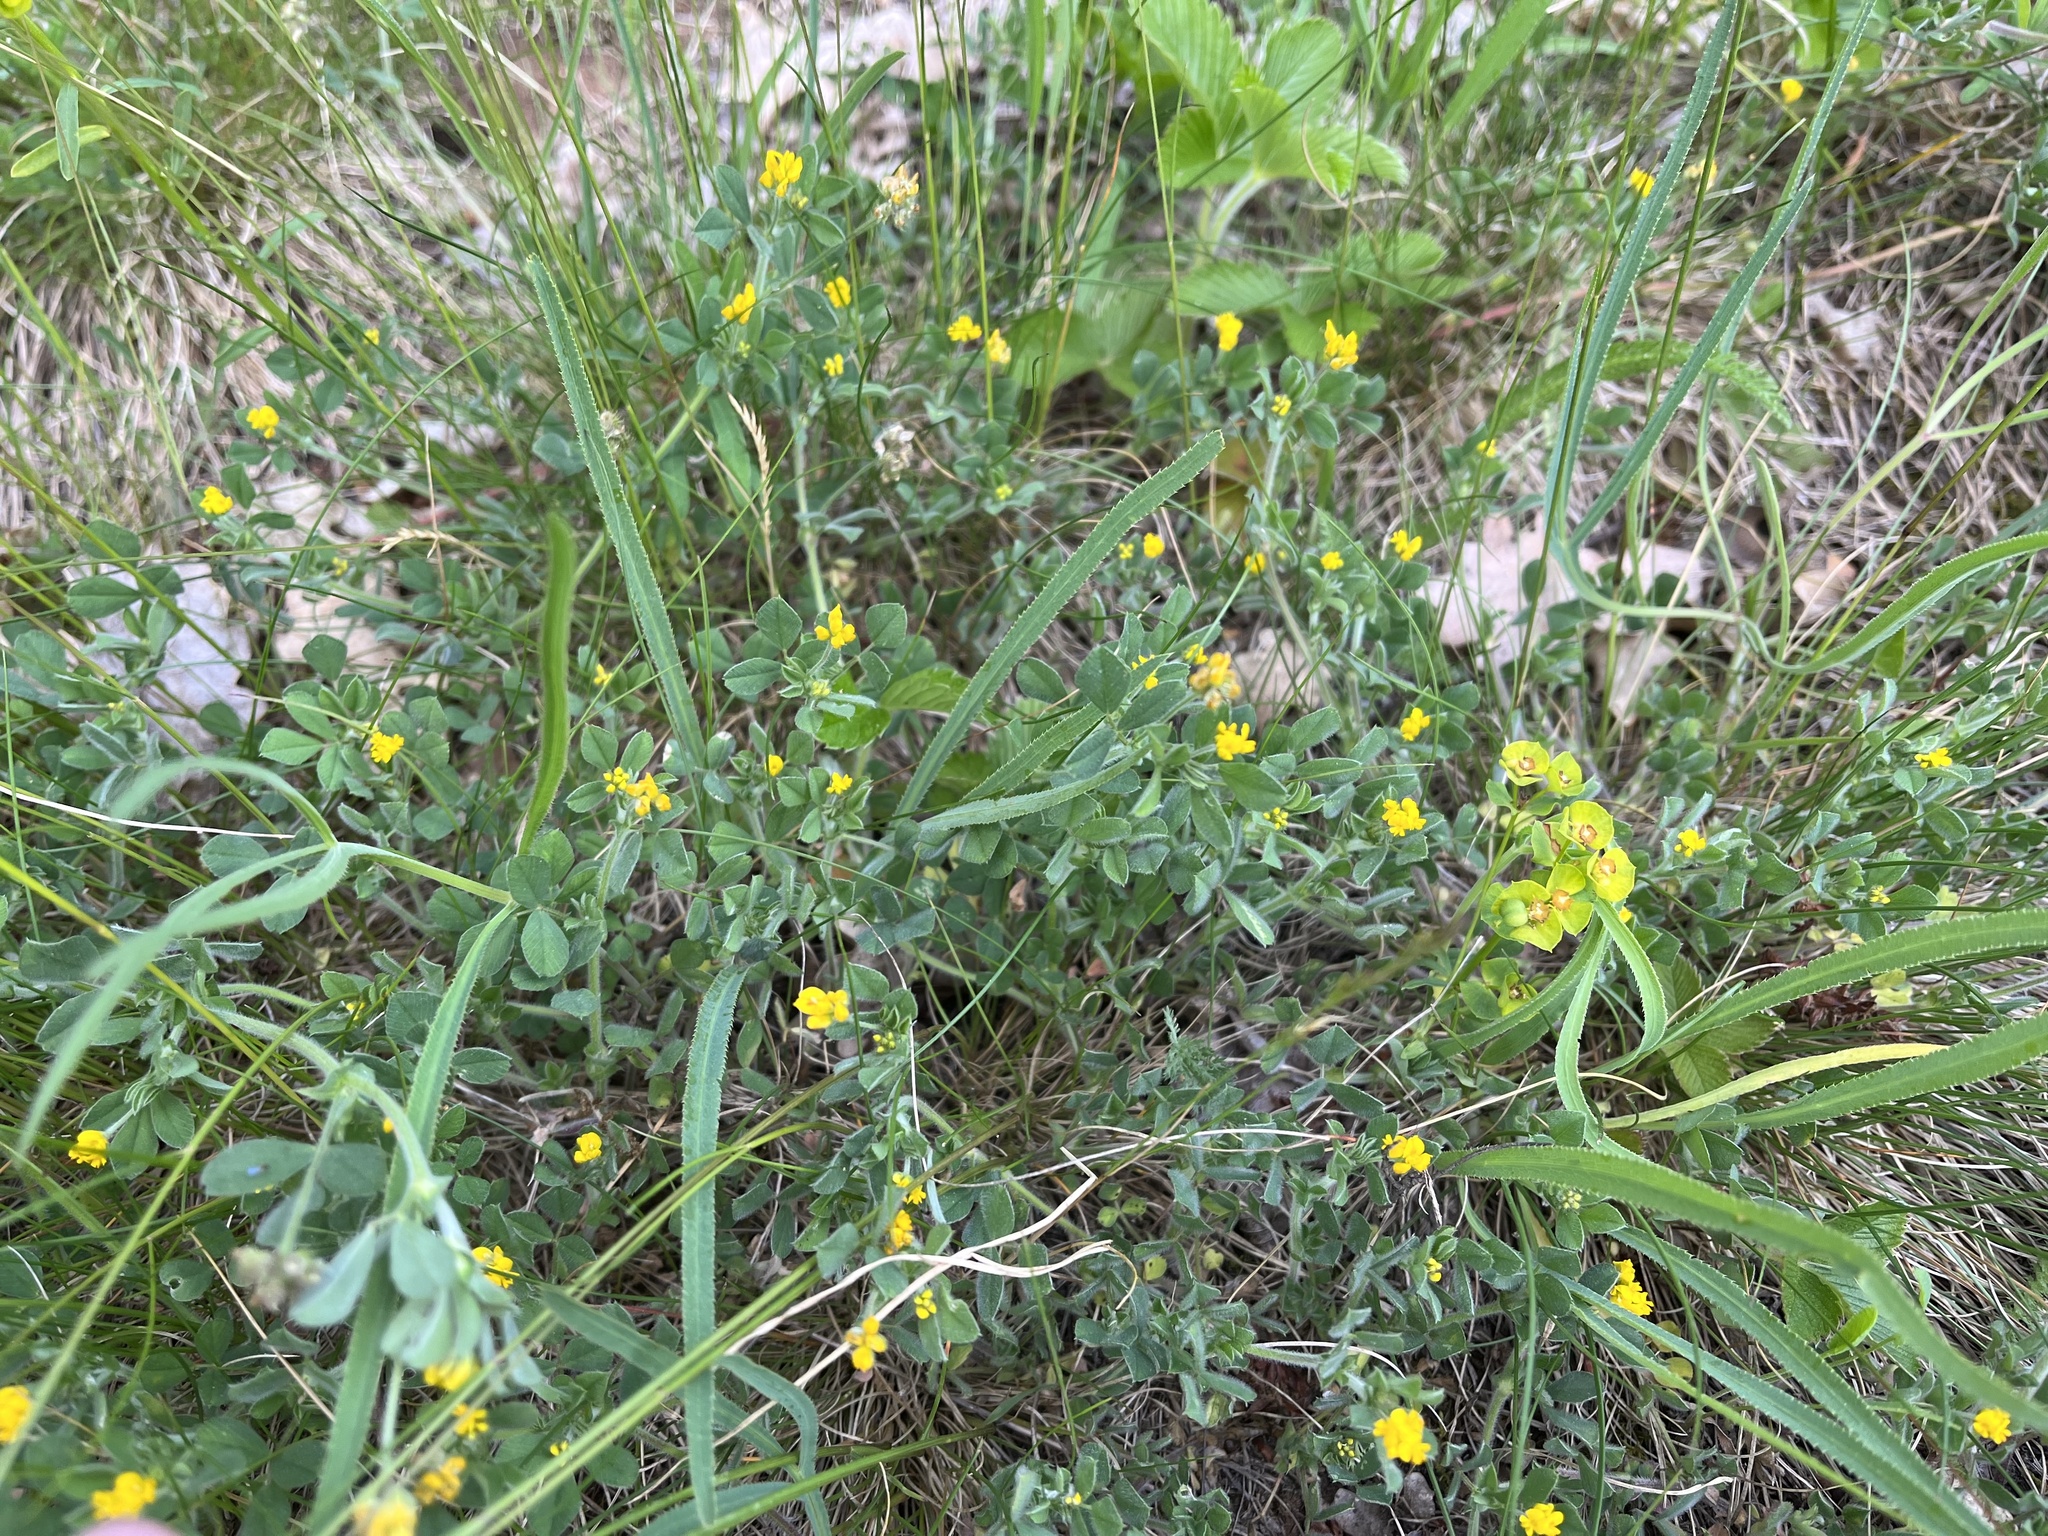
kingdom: Plantae
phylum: Tracheophyta
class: Magnoliopsida
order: Fabales
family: Fabaceae
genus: Medicago
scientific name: Medicago minima
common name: Little bur-clover
